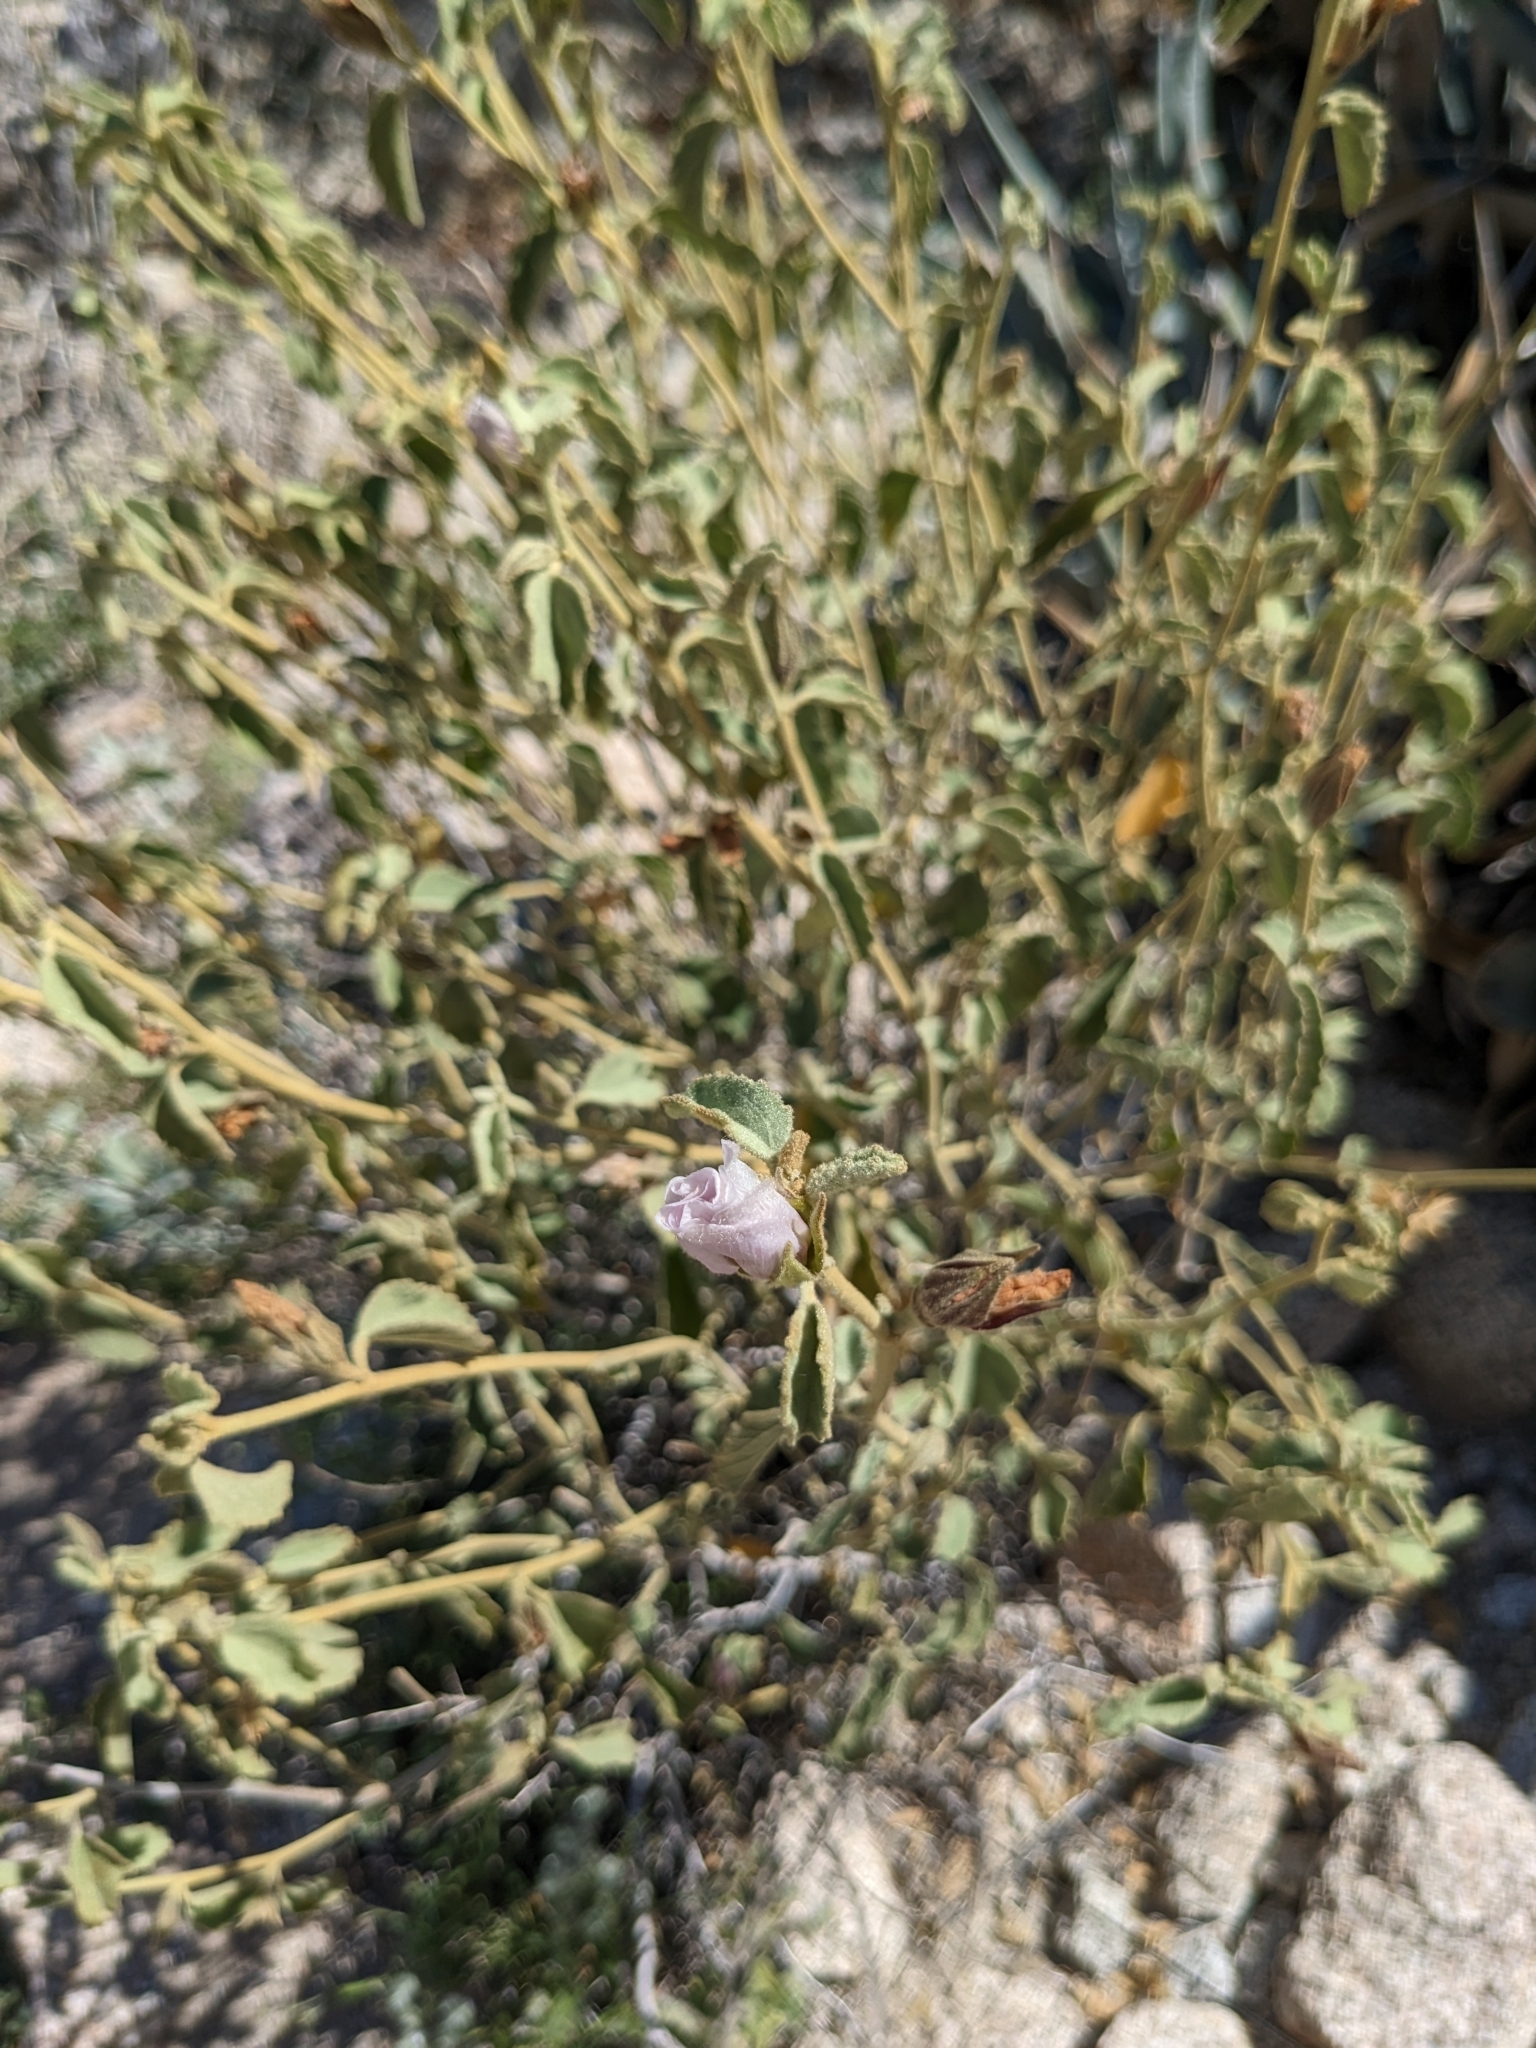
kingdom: Plantae
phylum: Tracheophyta
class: Magnoliopsida
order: Malvales
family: Malvaceae
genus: Hibiscus
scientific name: Hibiscus denudatus
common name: Paleface
